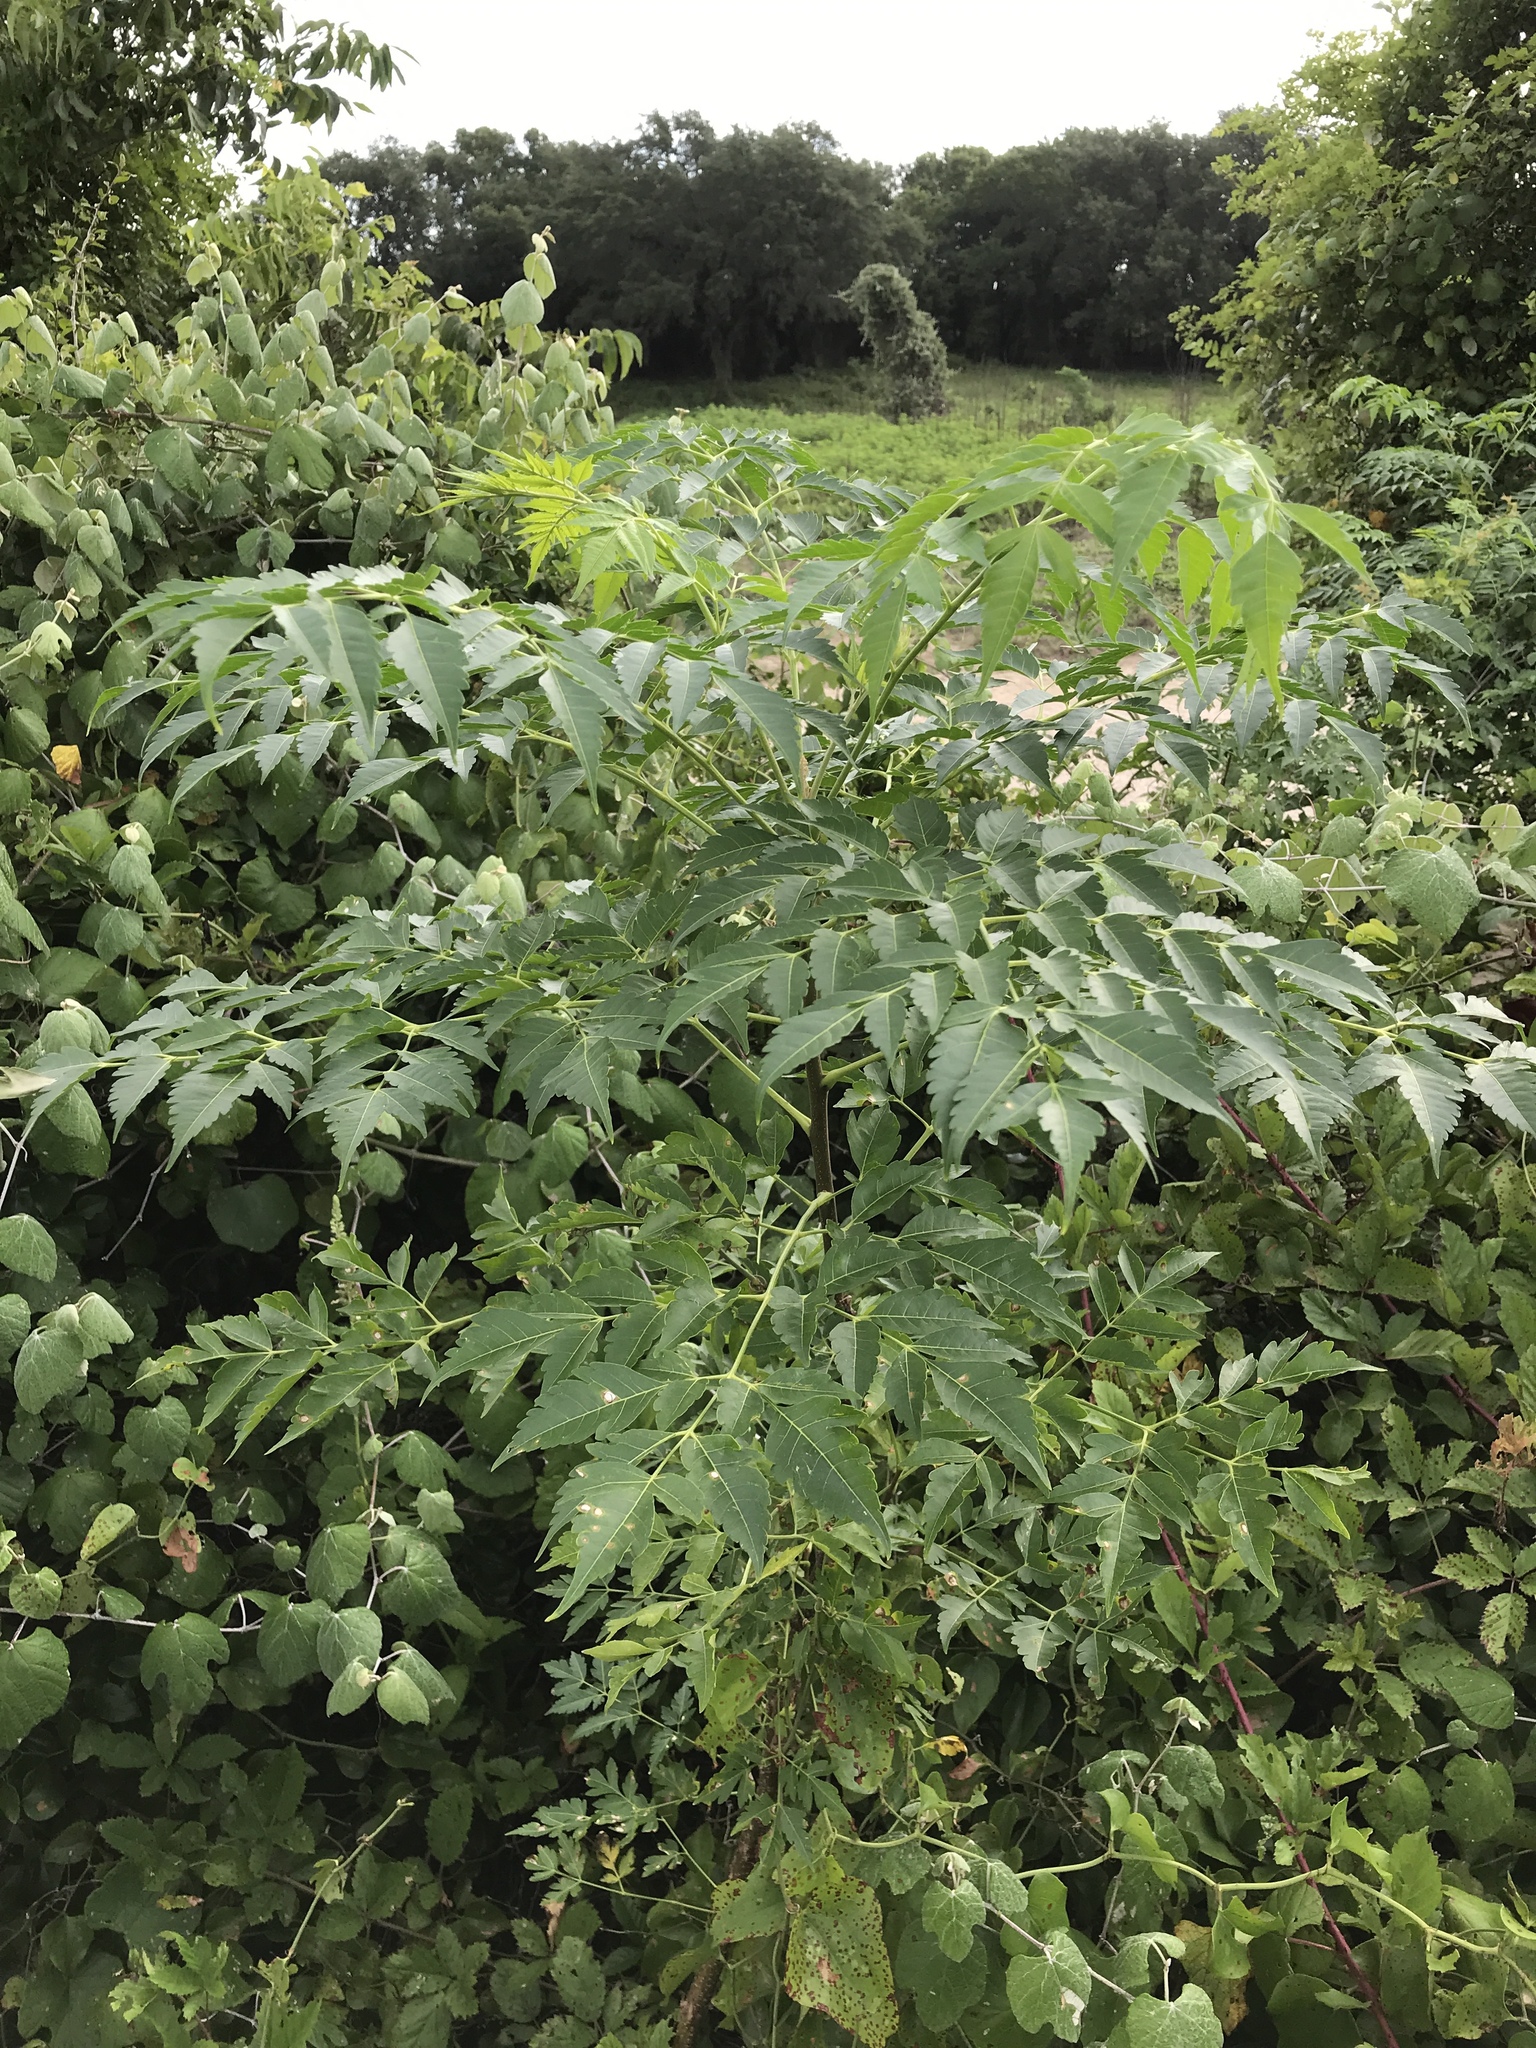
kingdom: Plantae
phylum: Tracheophyta
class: Magnoliopsida
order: Sapindales
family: Meliaceae
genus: Melia
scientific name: Melia azedarach
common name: Chinaberrytree
